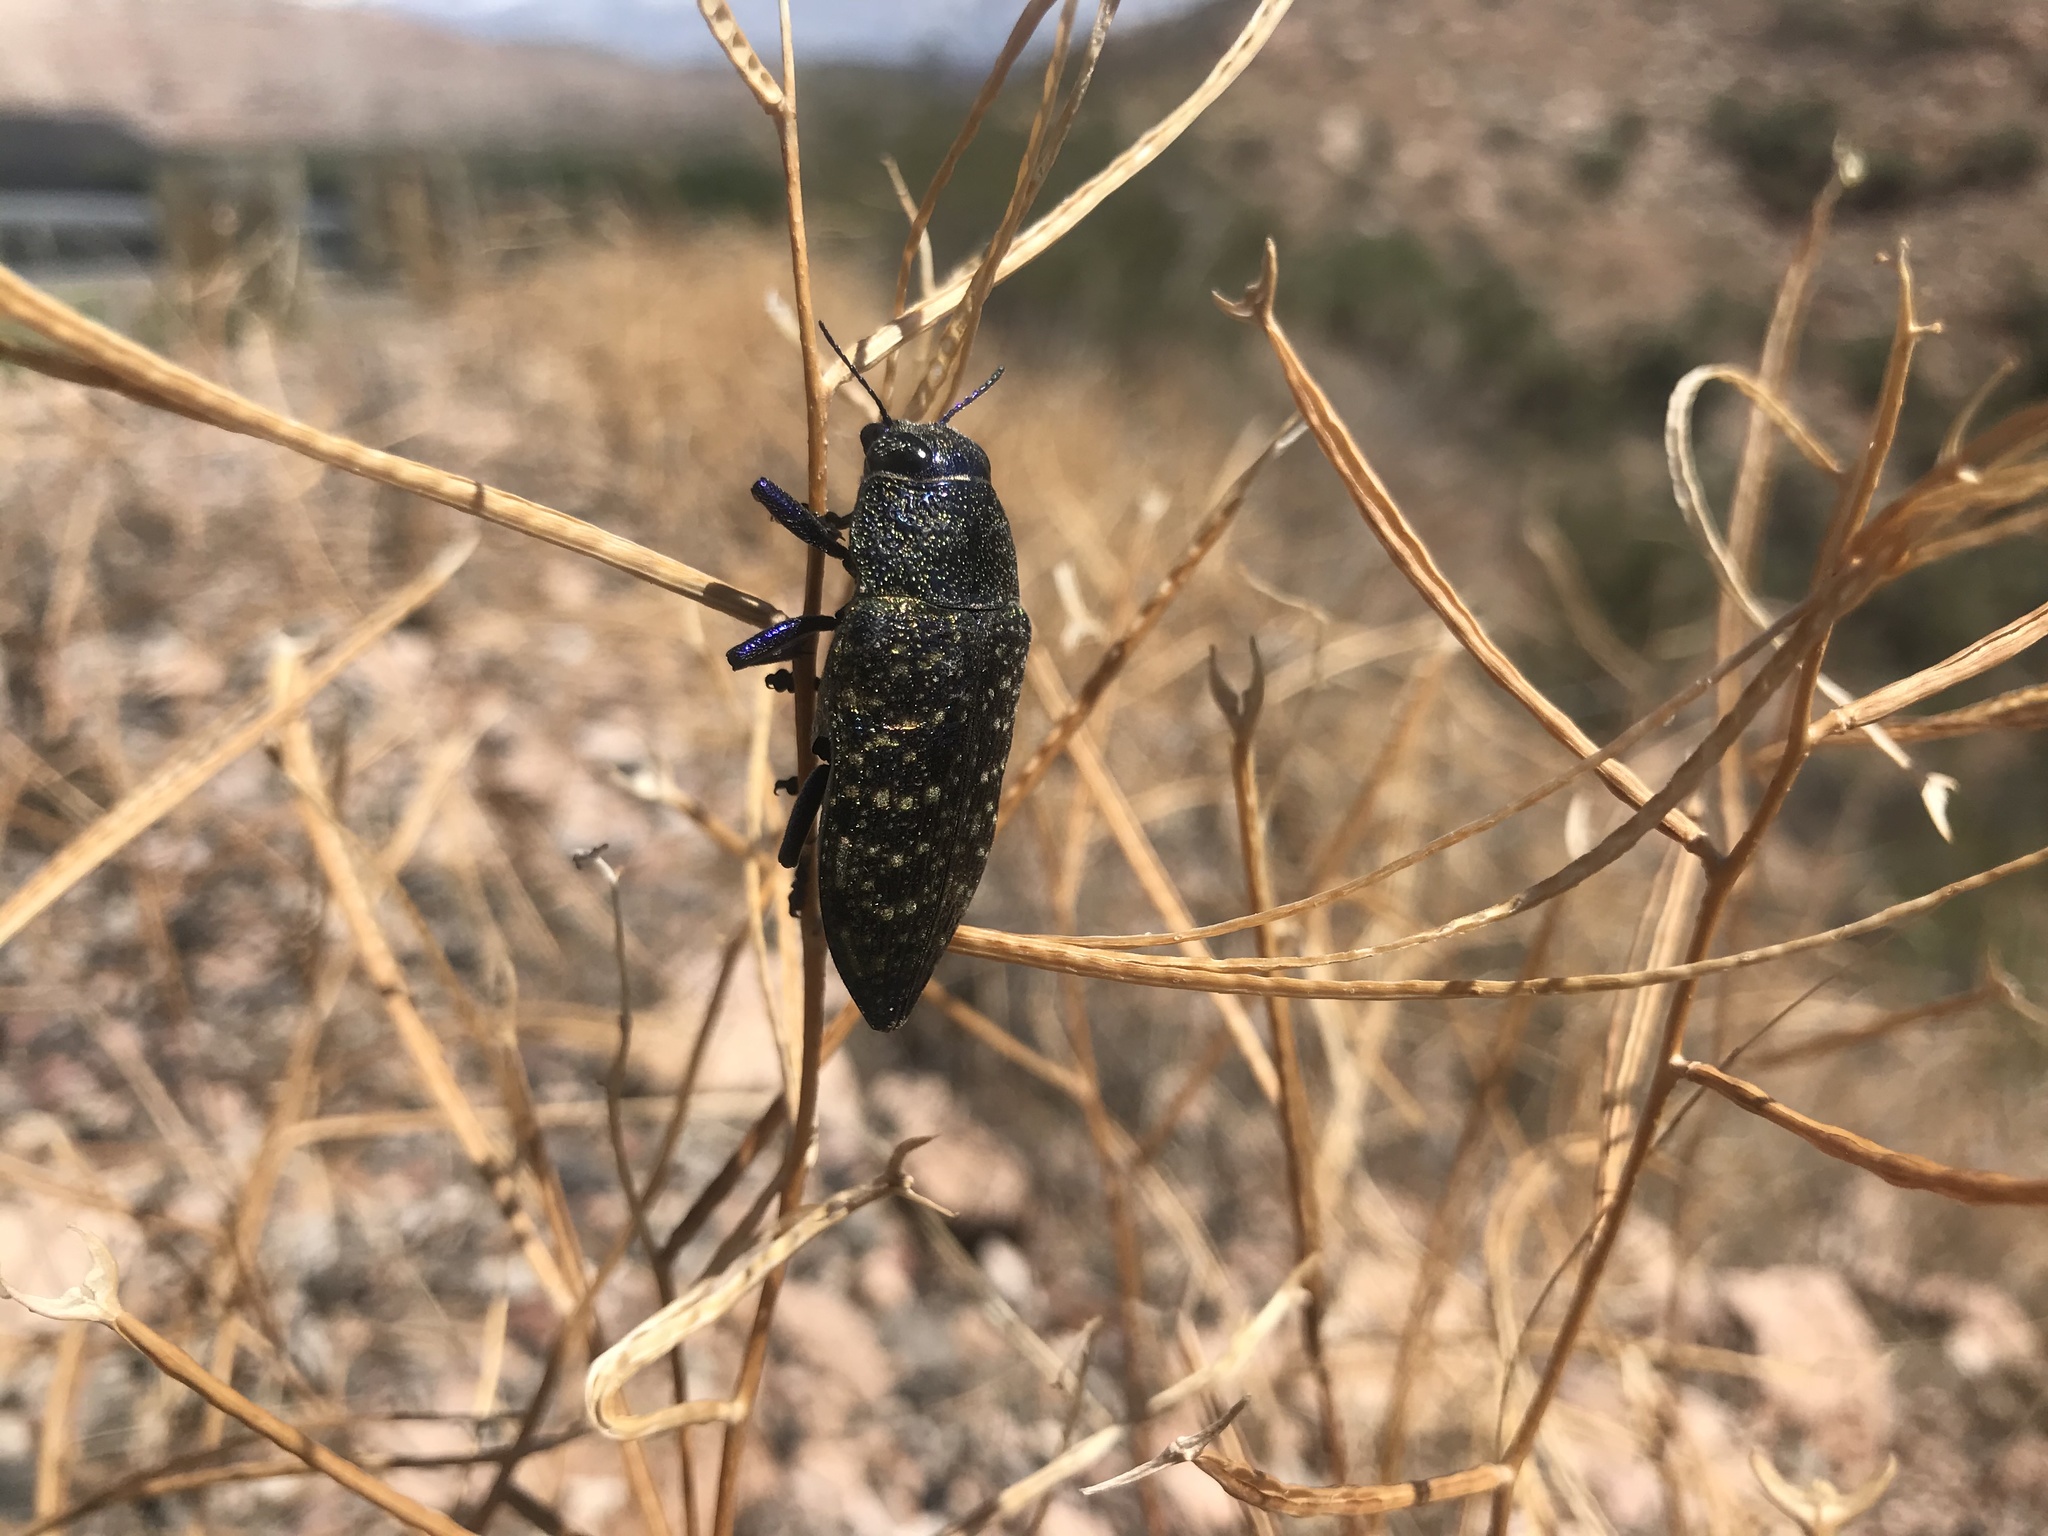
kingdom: Animalia
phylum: Arthropoda
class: Insecta
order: Coleoptera
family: Buprestidae
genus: Lampetis
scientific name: Lampetis webbii
